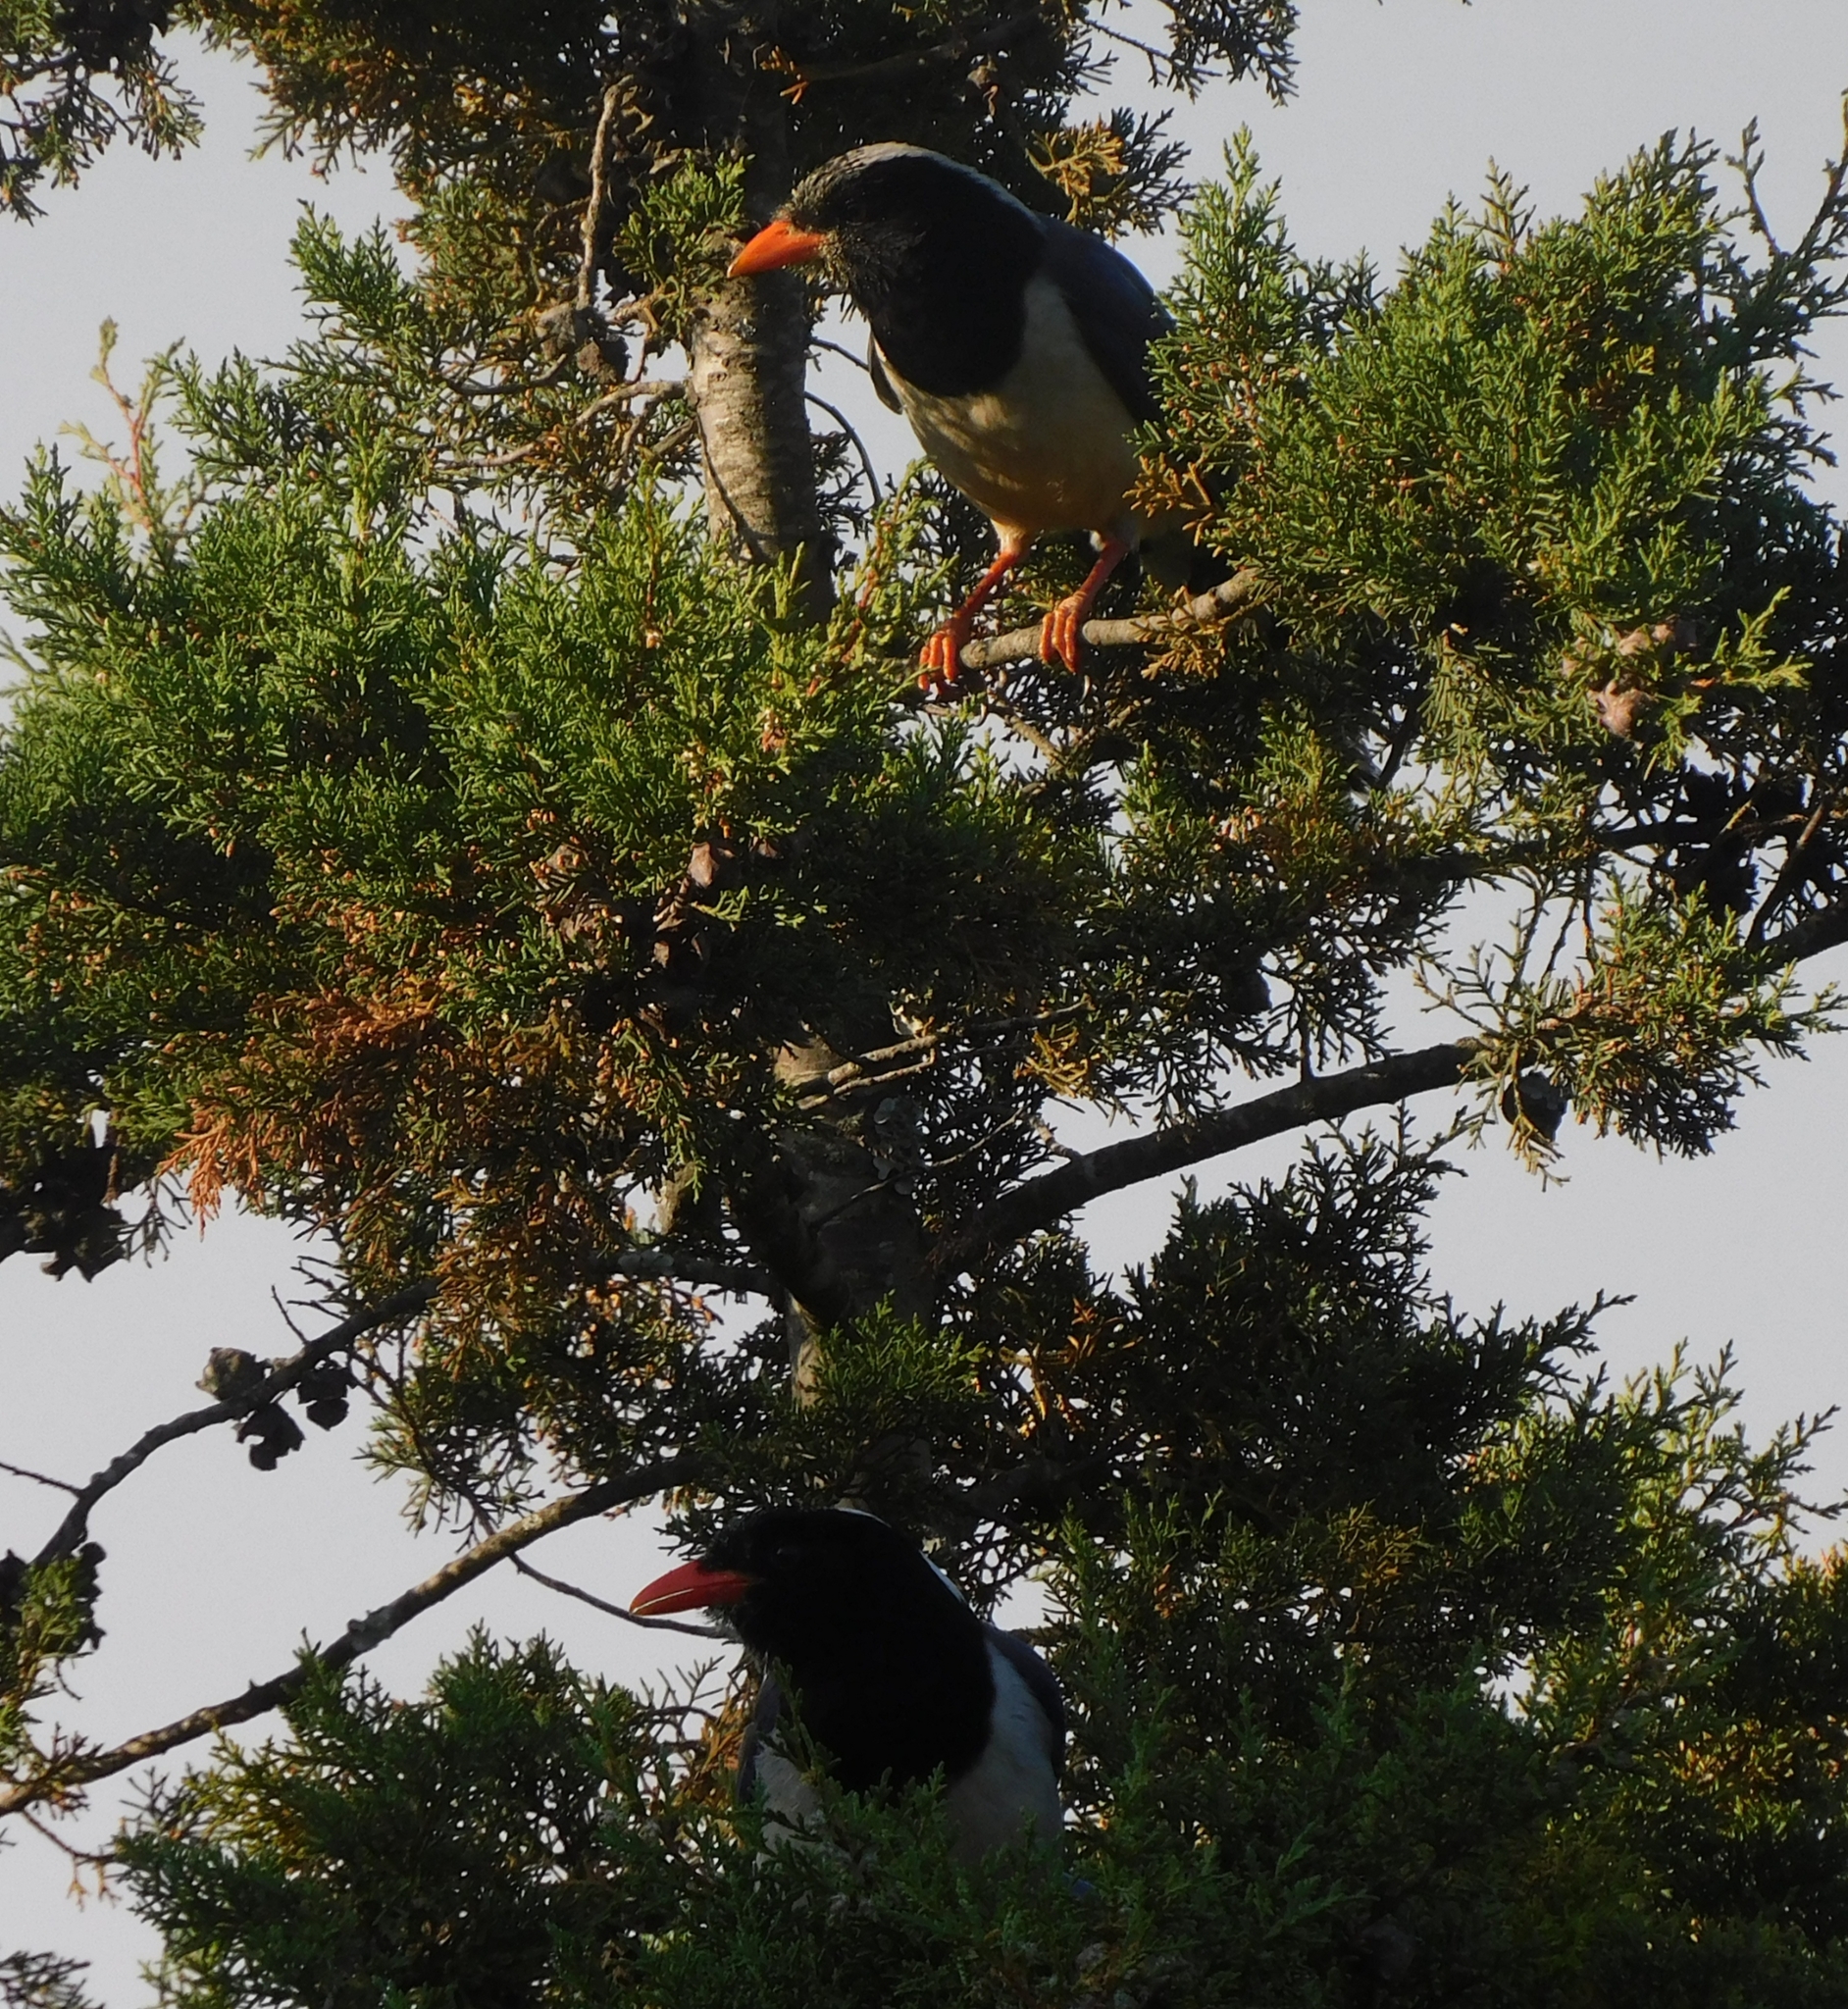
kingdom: Animalia
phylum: Chordata
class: Aves
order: Passeriformes
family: Corvidae
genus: Urocissa
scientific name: Urocissa erythroryncha
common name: Red-billed blue magpie
